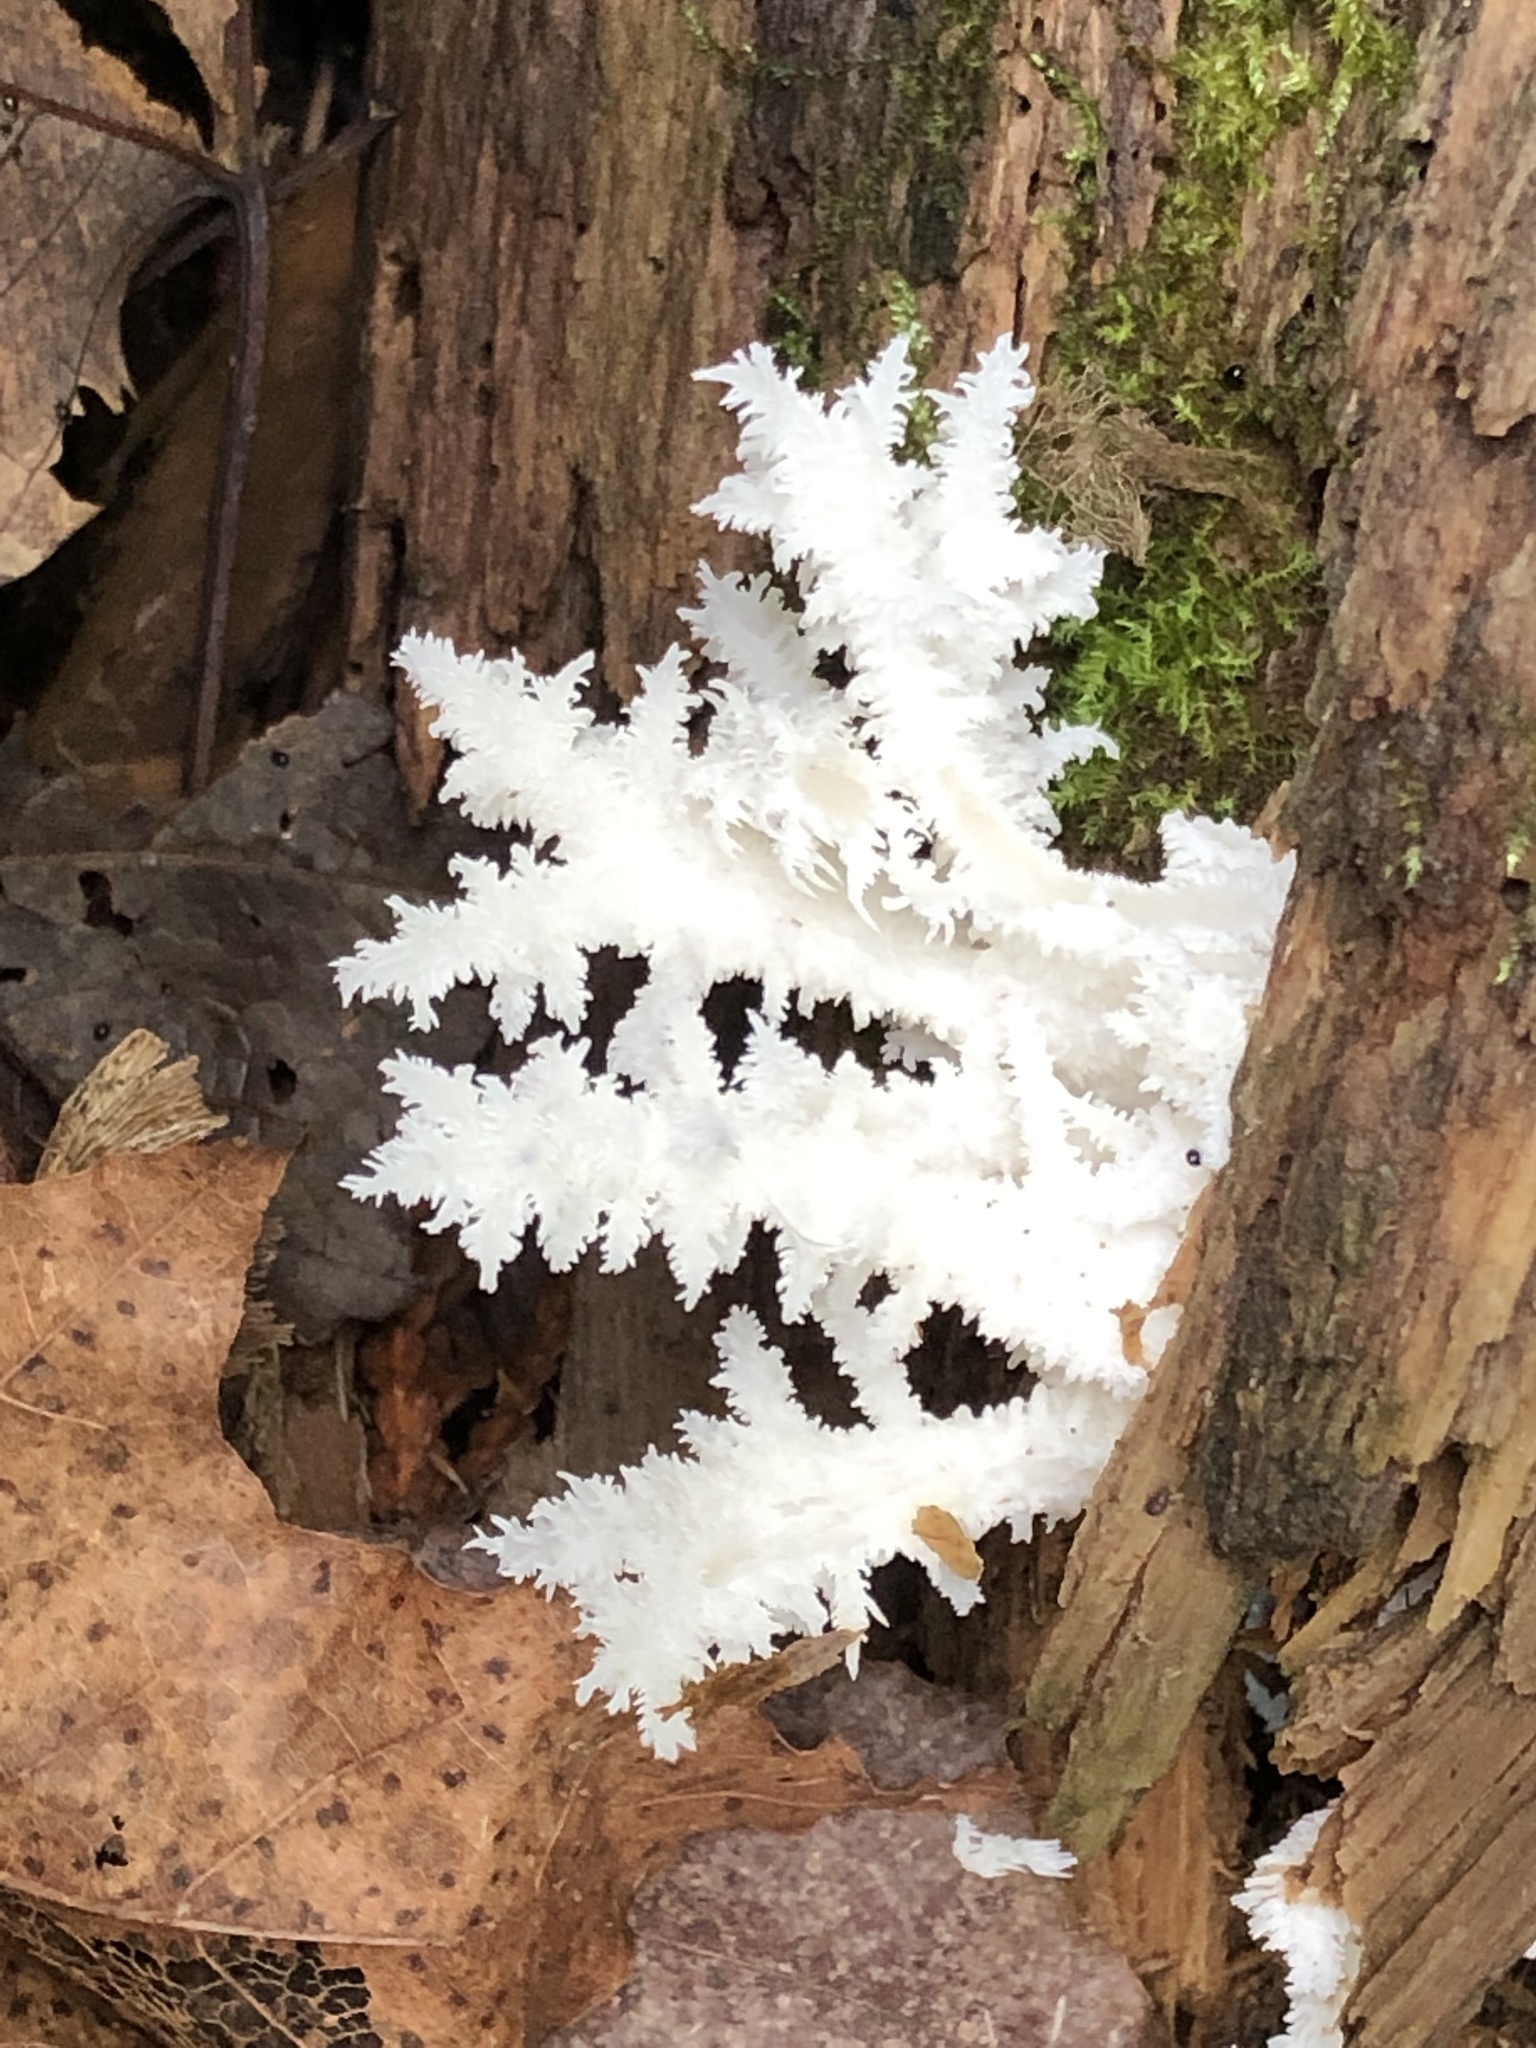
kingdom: Fungi
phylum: Basidiomycota
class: Agaricomycetes
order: Russulales
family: Hericiaceae
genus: Hericium
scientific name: Hericium coralloides
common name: Coral tooth
